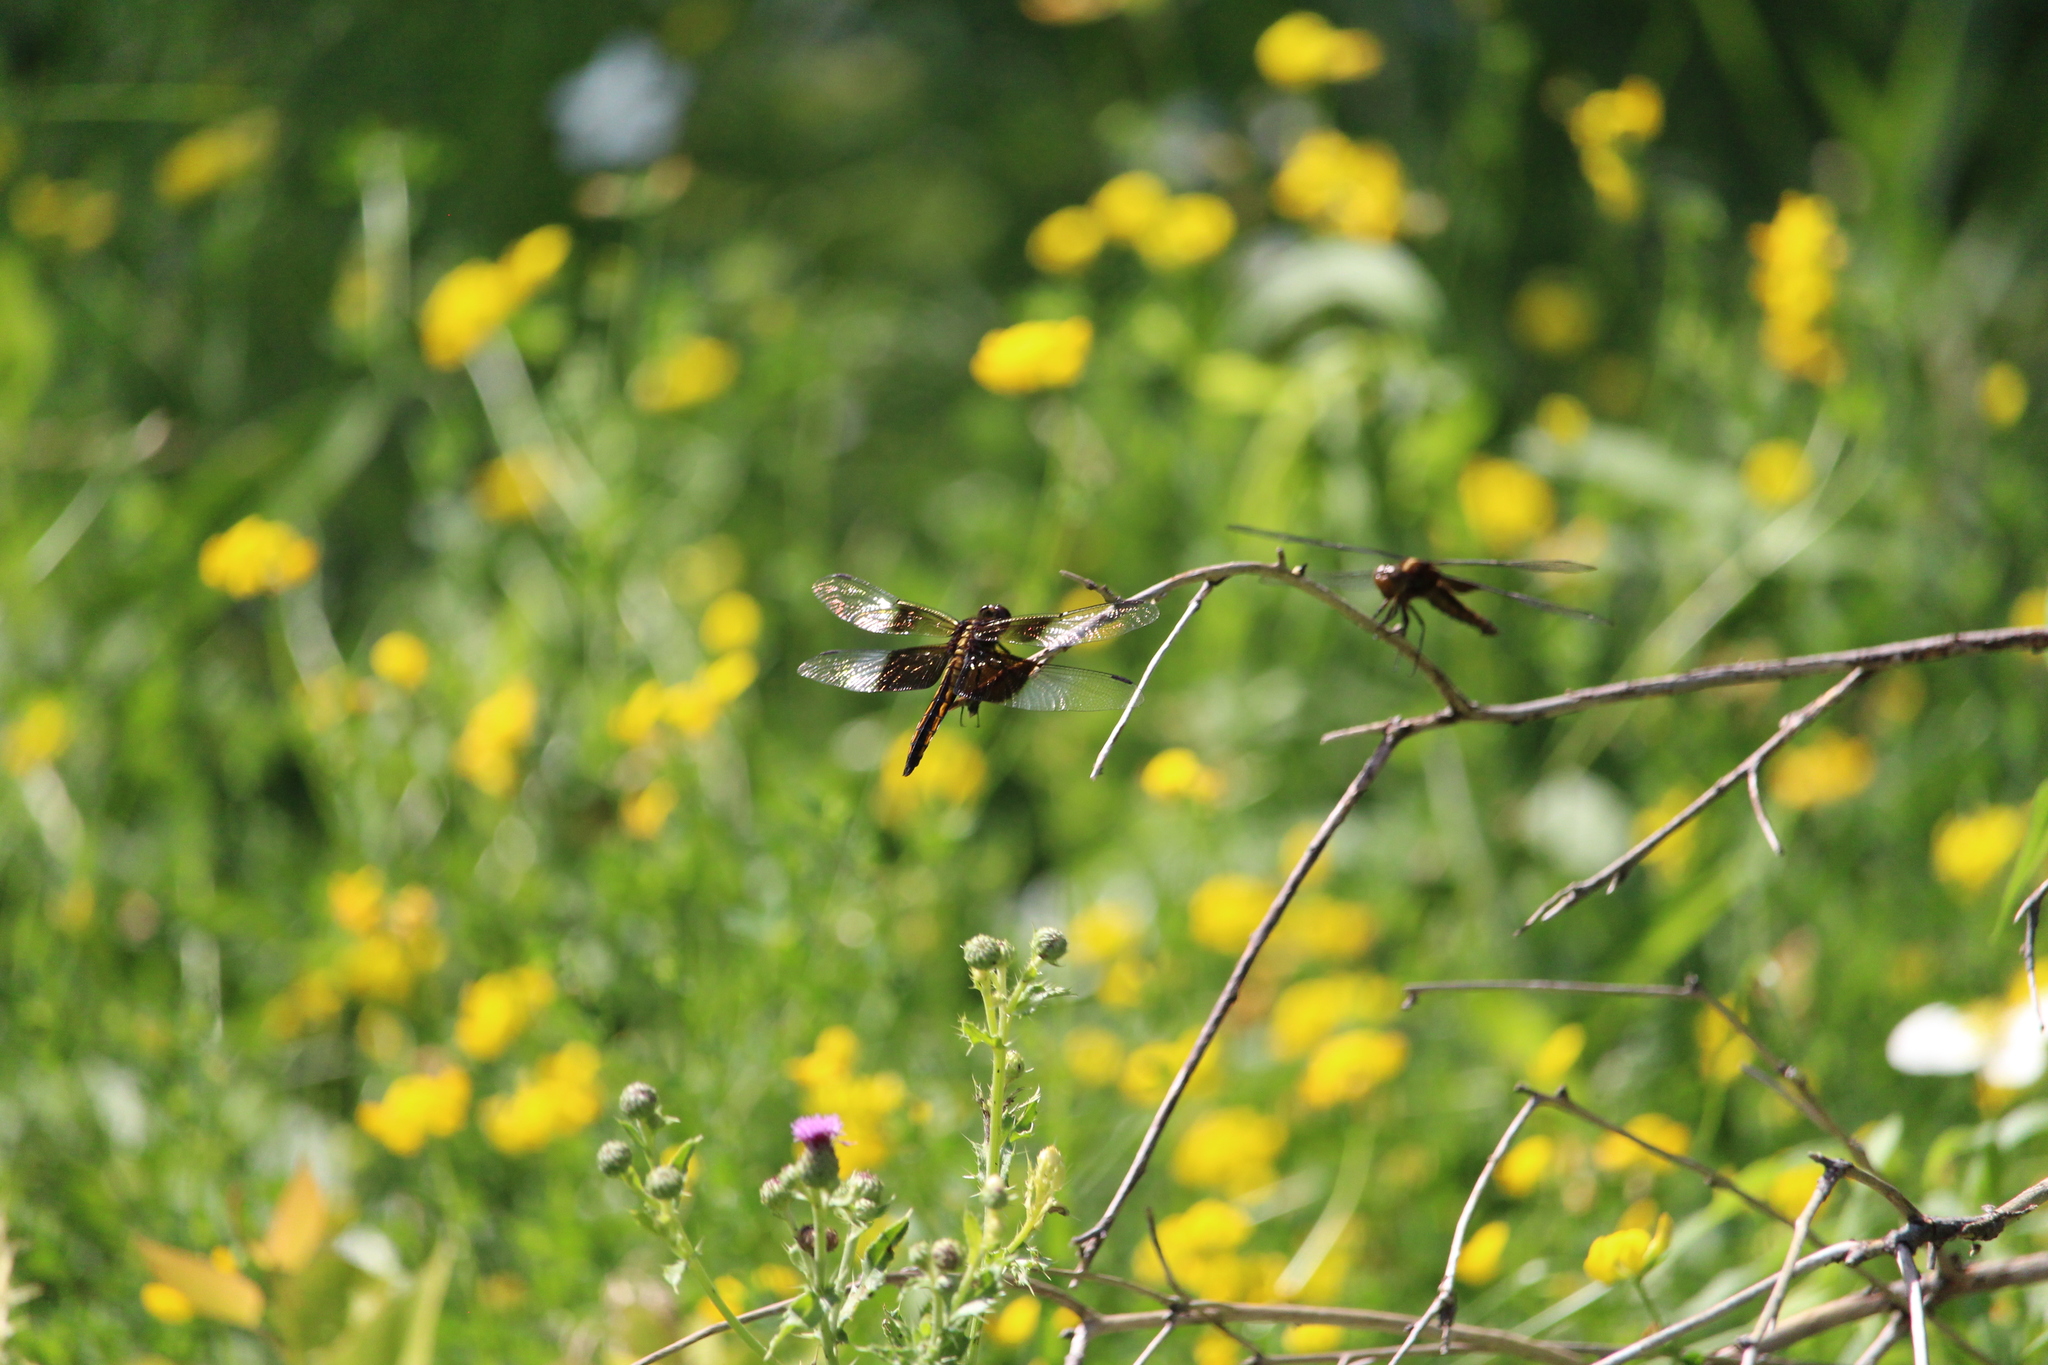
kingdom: Animalia
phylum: Arthropoda
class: Insecta
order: Odonata
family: Libellulidae
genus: Libellula
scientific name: Libellula luctuosa
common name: Widow skimmer
